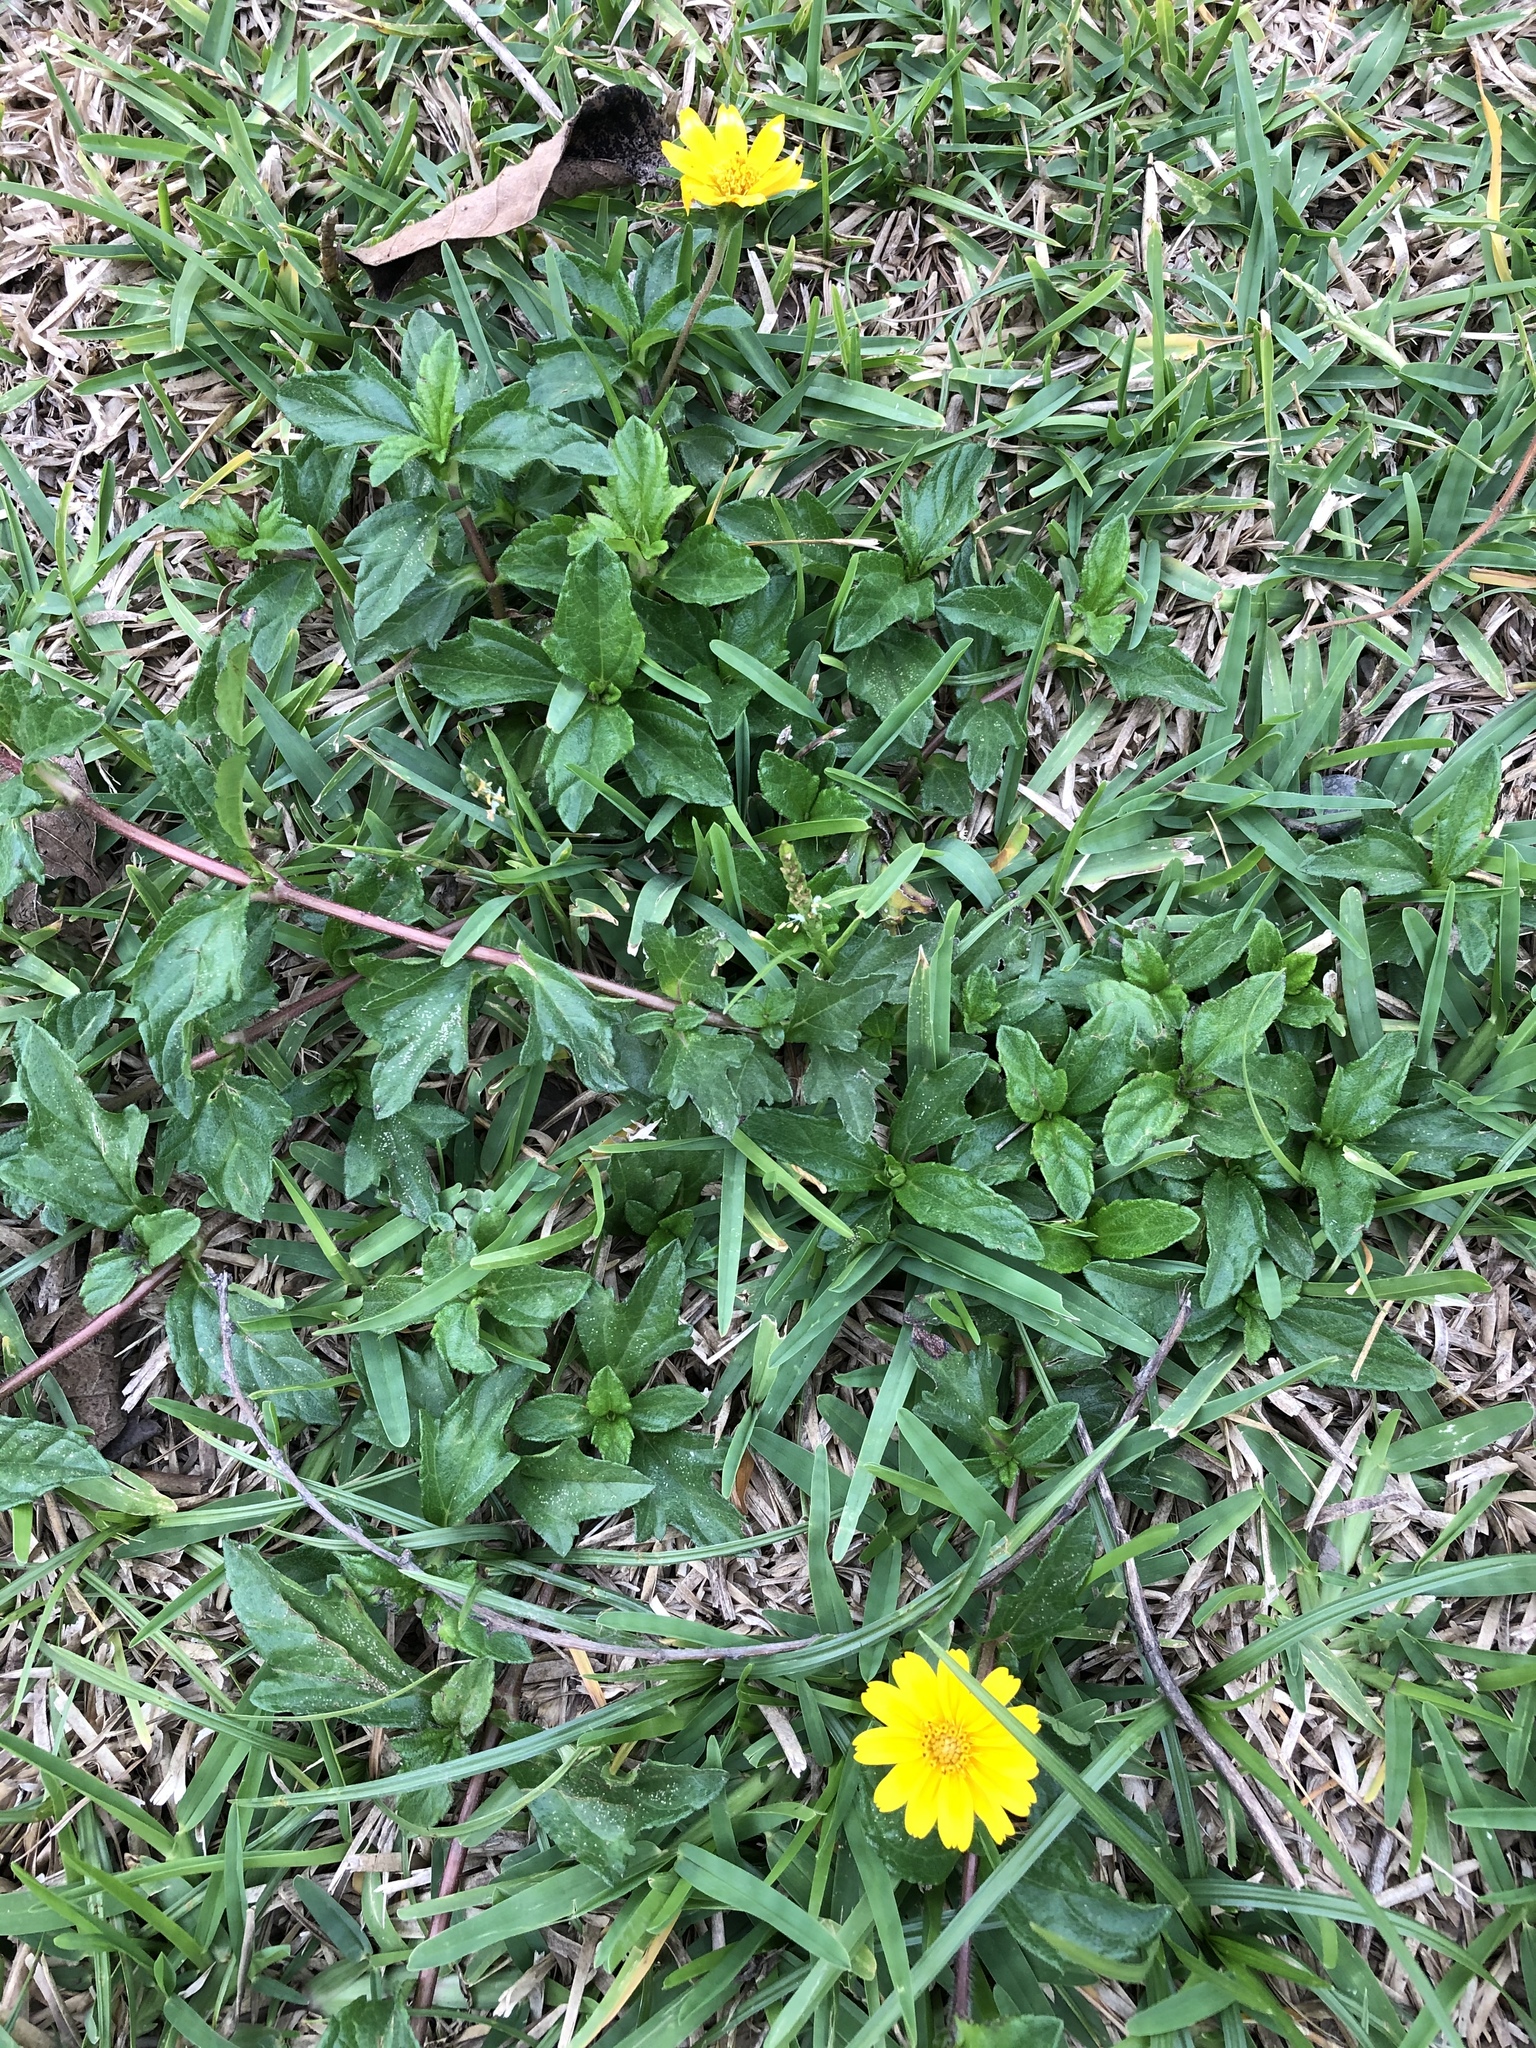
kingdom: Plantae
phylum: Tracheophyta
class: Magnoliopsida
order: Asterales
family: Asteraceae
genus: Sphagneticola
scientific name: Sphagneticola trilobata
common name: Bay biscayne creeping-oxeye
